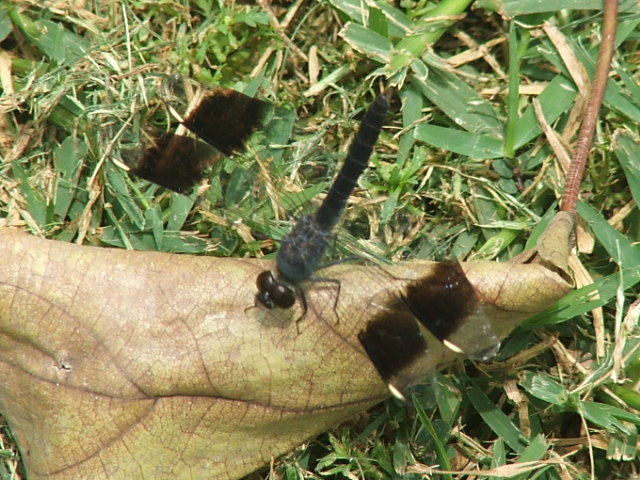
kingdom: Animalia
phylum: Arthropoda
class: Insecta
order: Odonata
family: Libellulidae
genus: Brachythemis
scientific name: Brachythemis leucosticta
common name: Banded groundling
